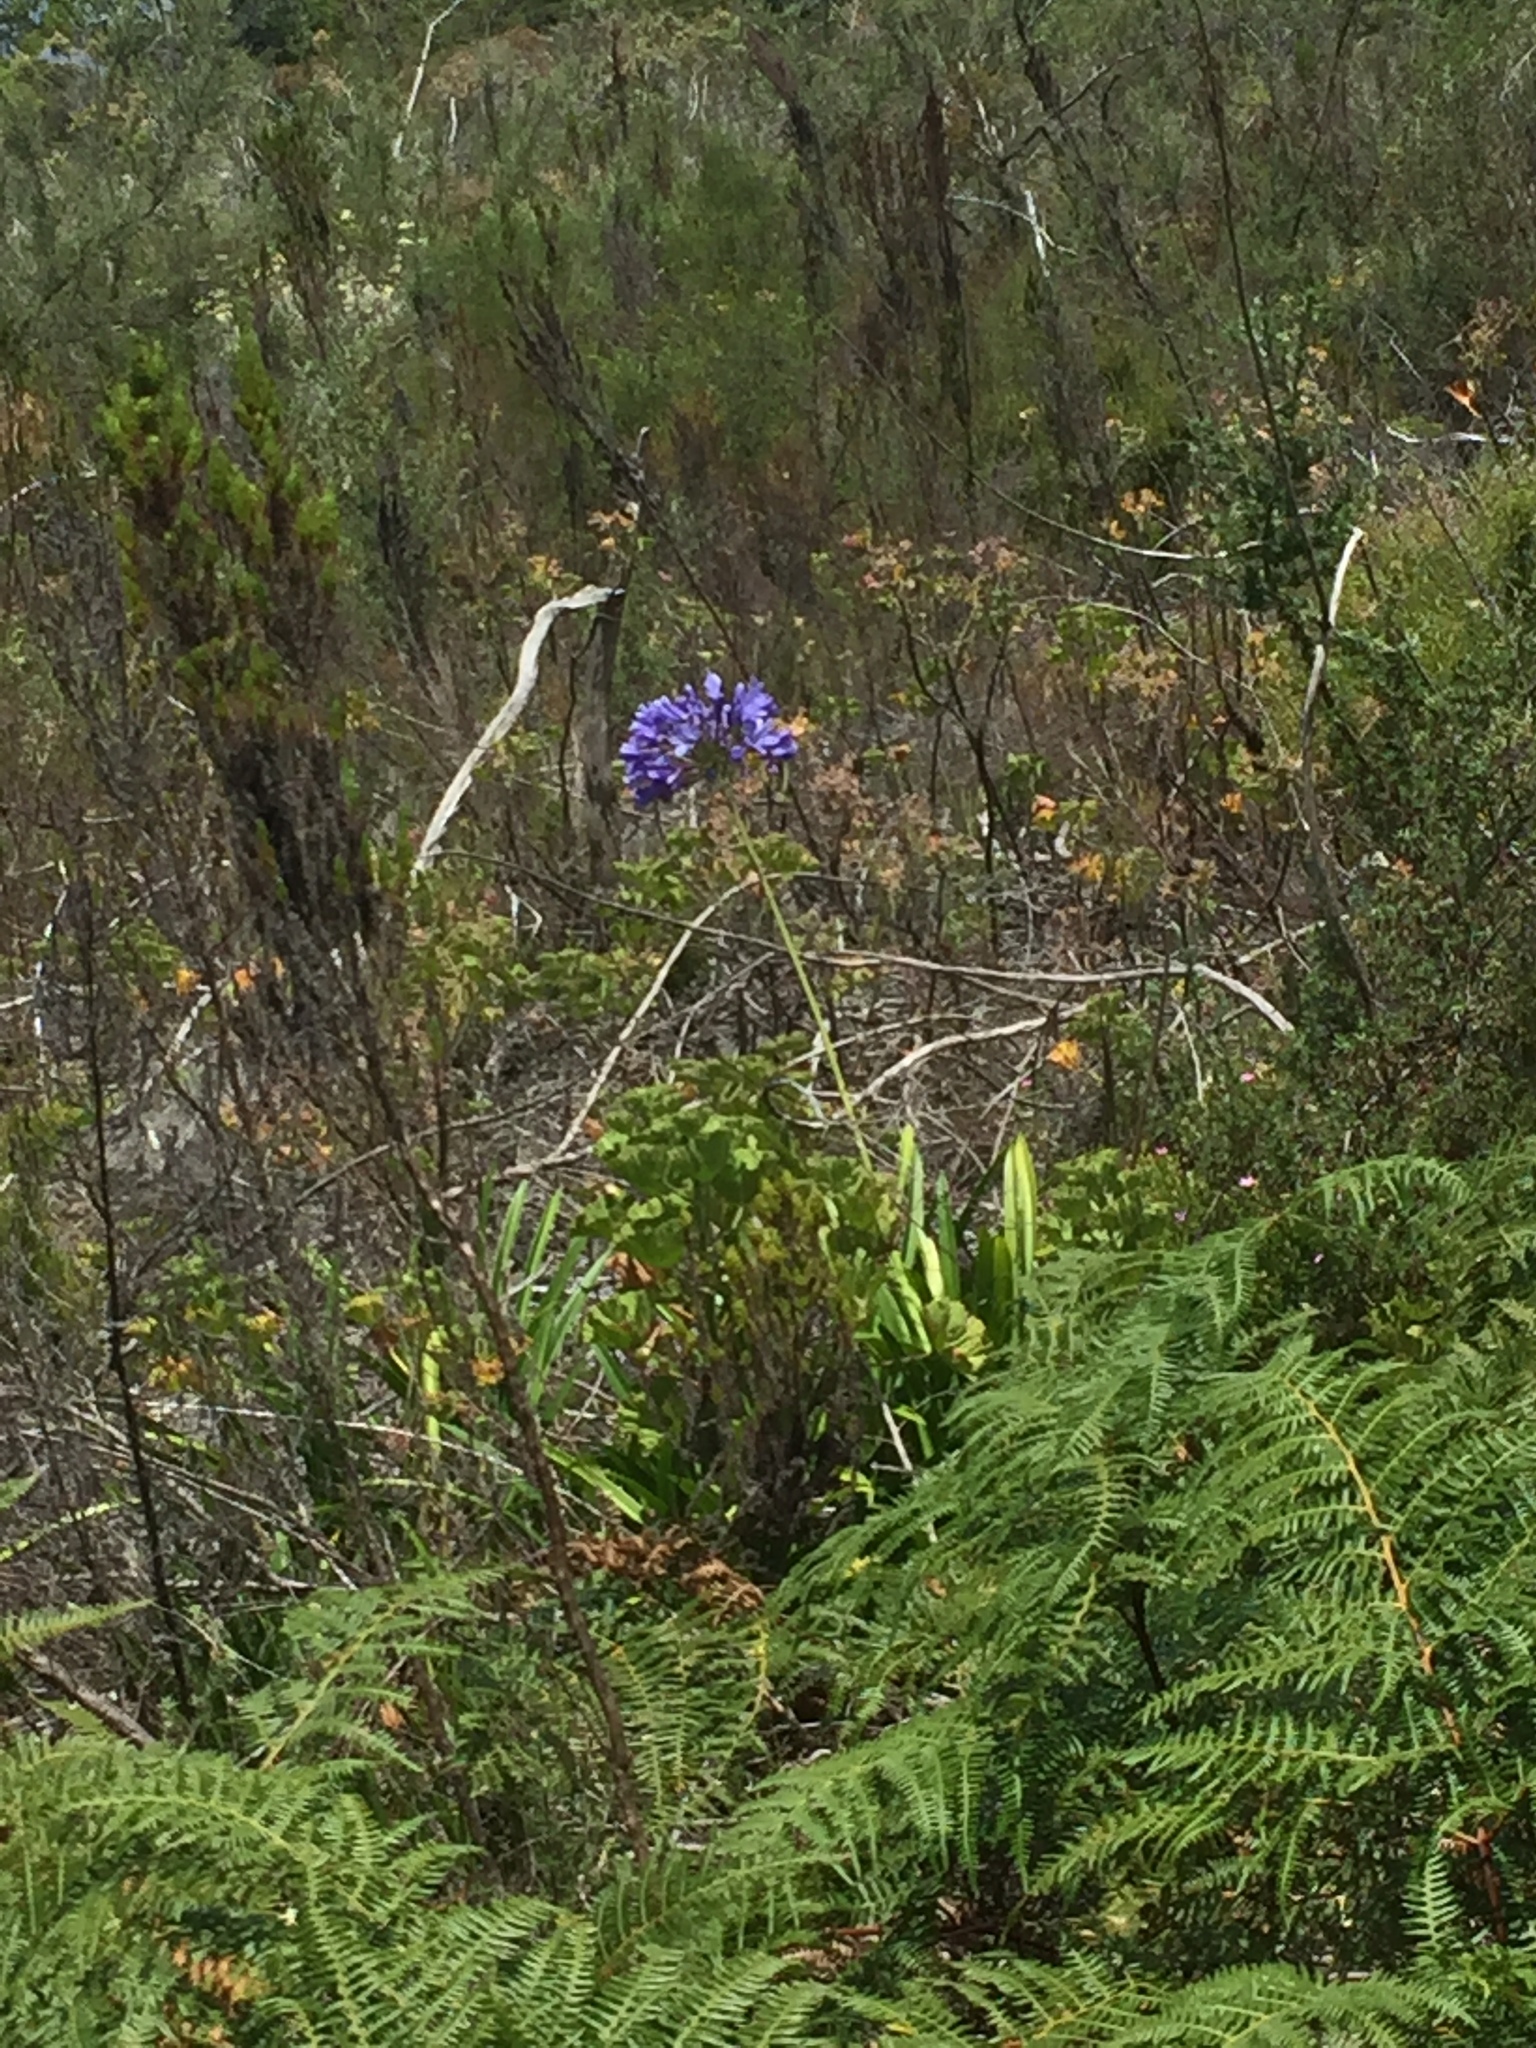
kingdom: Plantae
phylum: Tracheophyta
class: Liliopsida
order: Asparagales
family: Amaryllidaceae
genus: Agapanthus
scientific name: Agapanthus praecox
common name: African-lily
